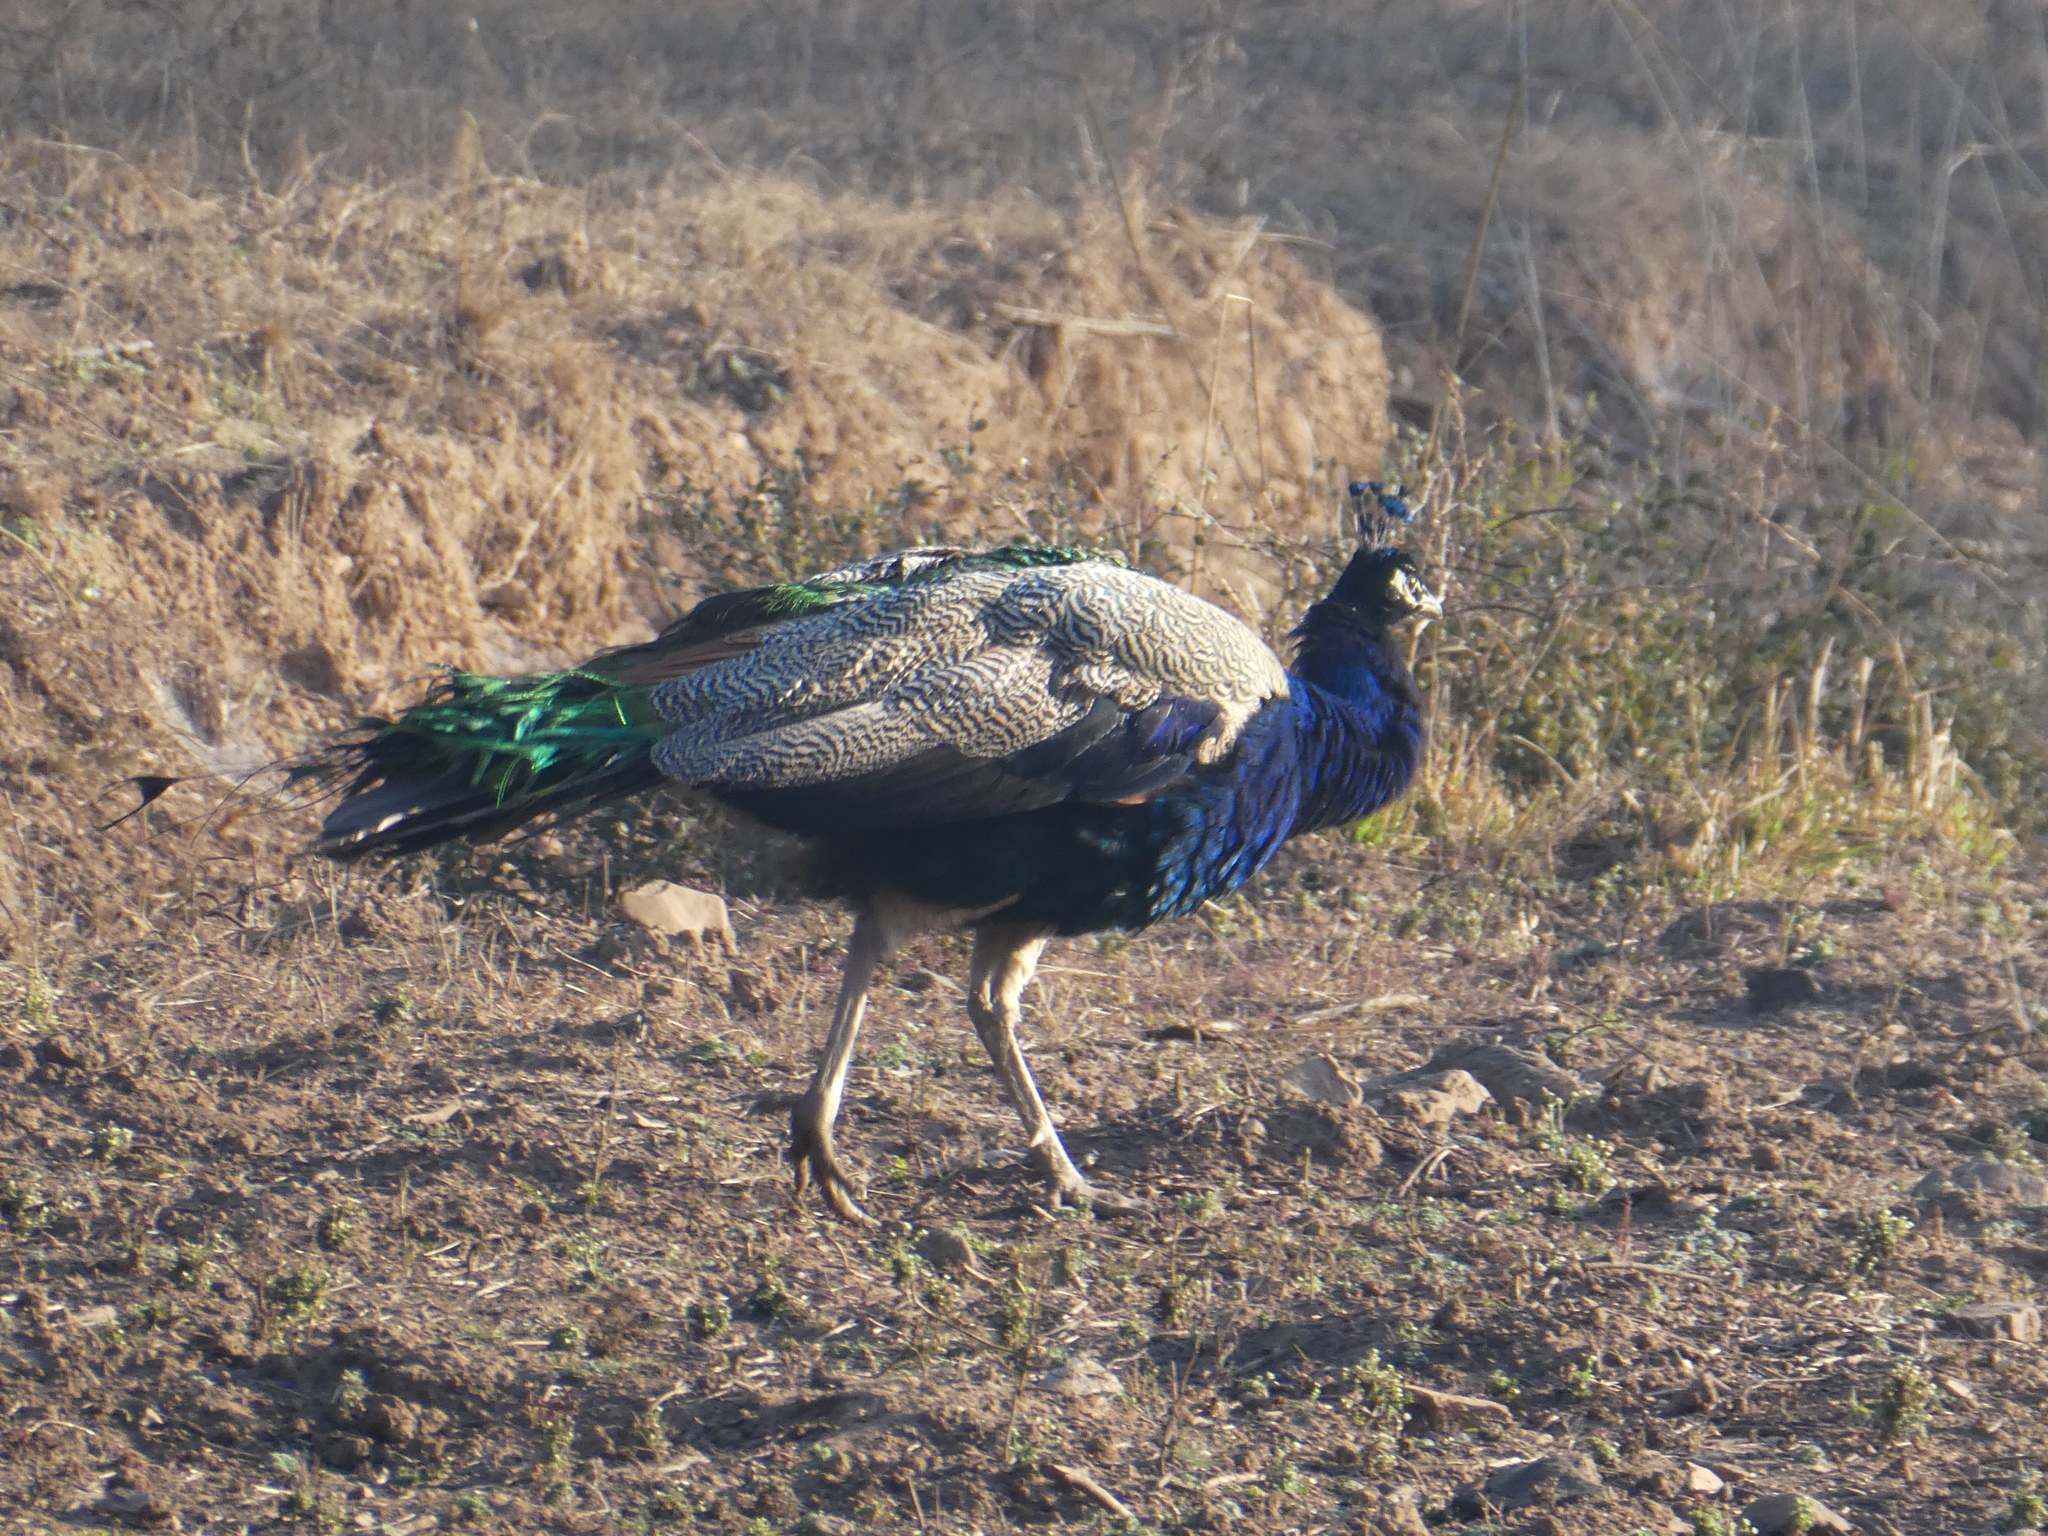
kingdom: Animalia
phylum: Chordata
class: Aves
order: Galliformes
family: Phasianidae
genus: Pavo
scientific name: Pavo cristatus
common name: Indian peafowl
